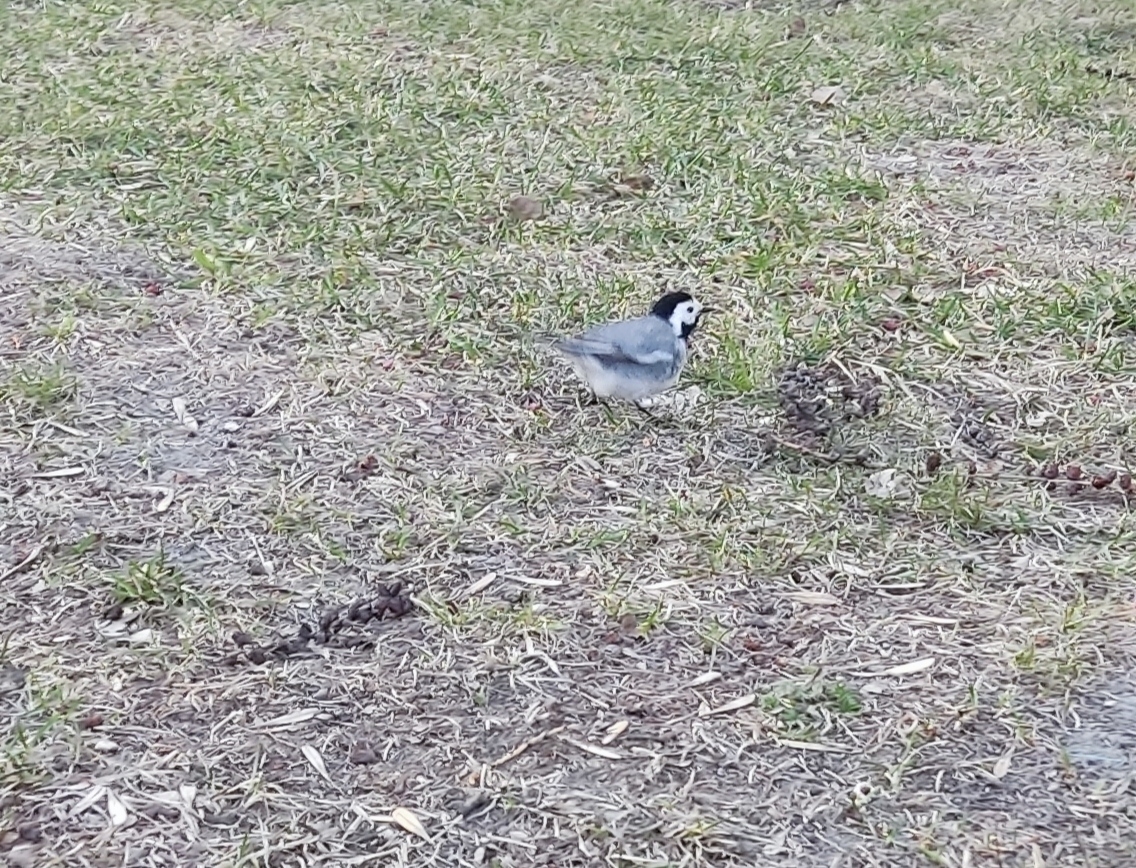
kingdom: Animalia
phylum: Chordata
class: Aves
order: Passeriformes
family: Motacillidae
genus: Motacilla
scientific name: Motacilla alba
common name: White wagtail
